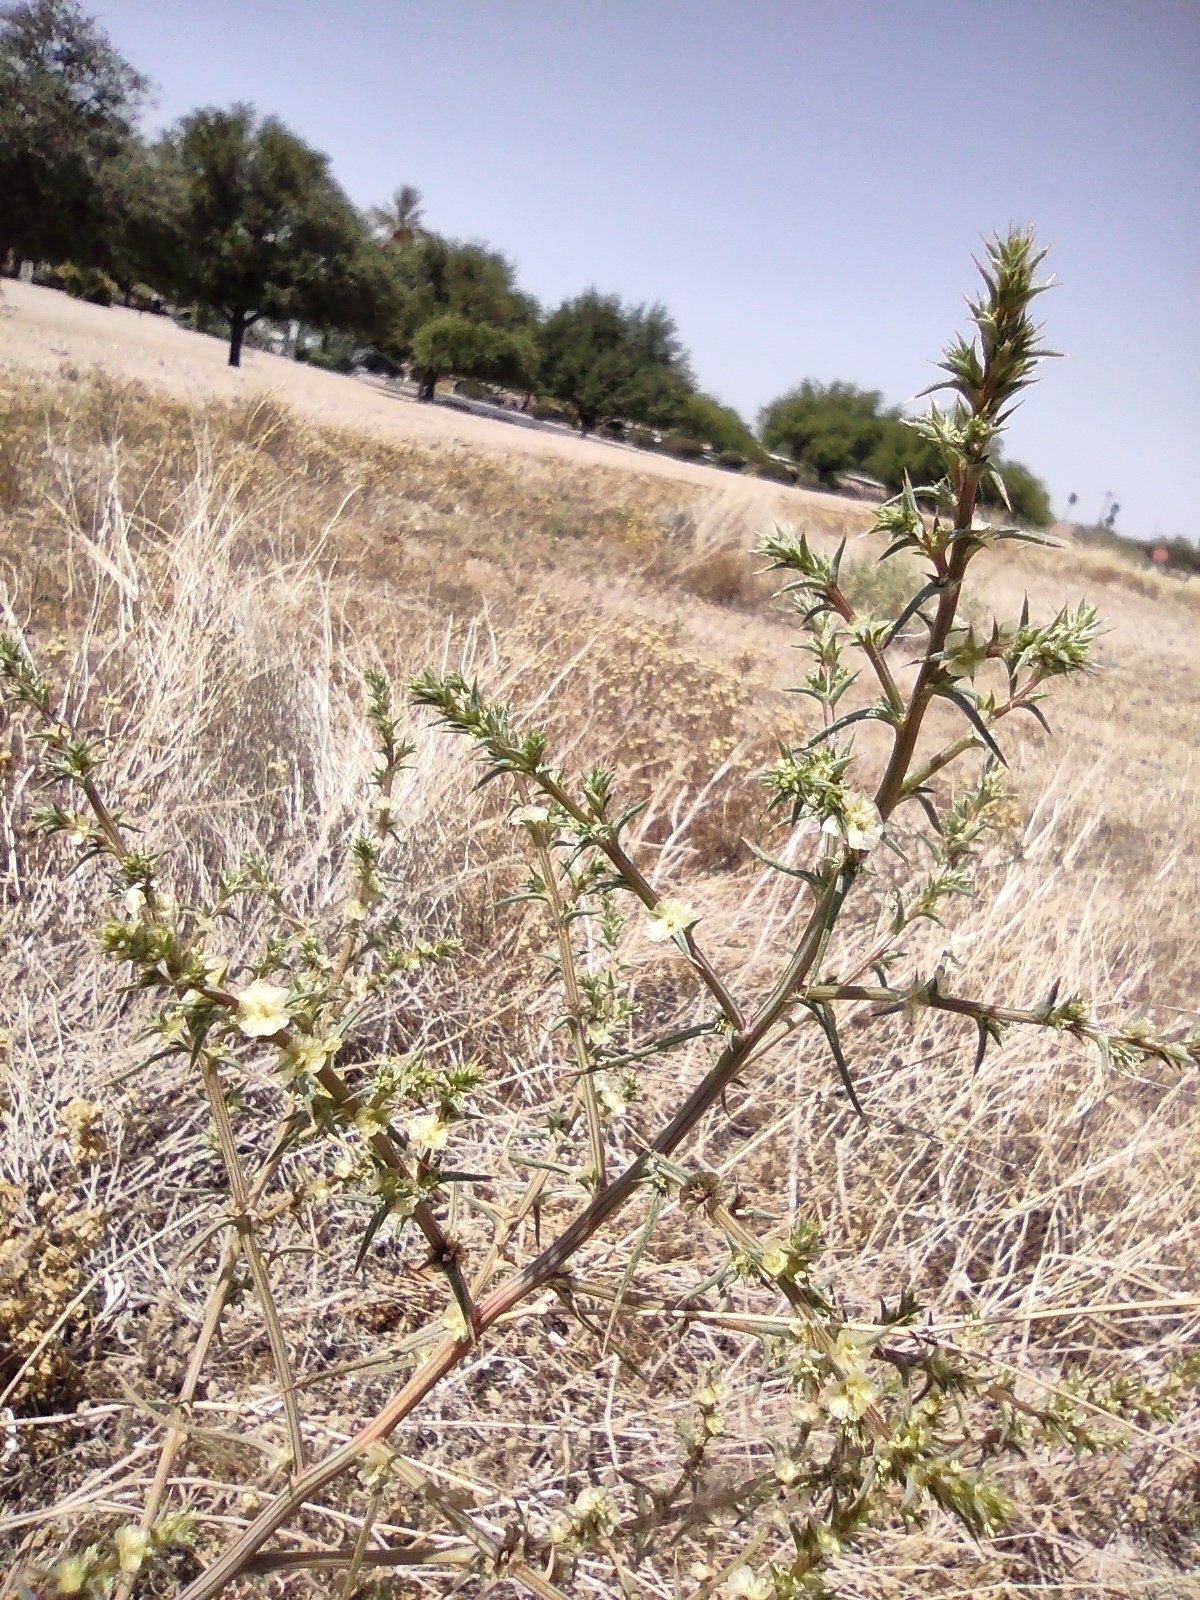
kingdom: Plantae
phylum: Tracheophyta
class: Magnoliopsida
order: Caryophyllales
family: Amaranthaceae
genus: Salsola
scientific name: Salsola tragus
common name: Prickly russian thistle
